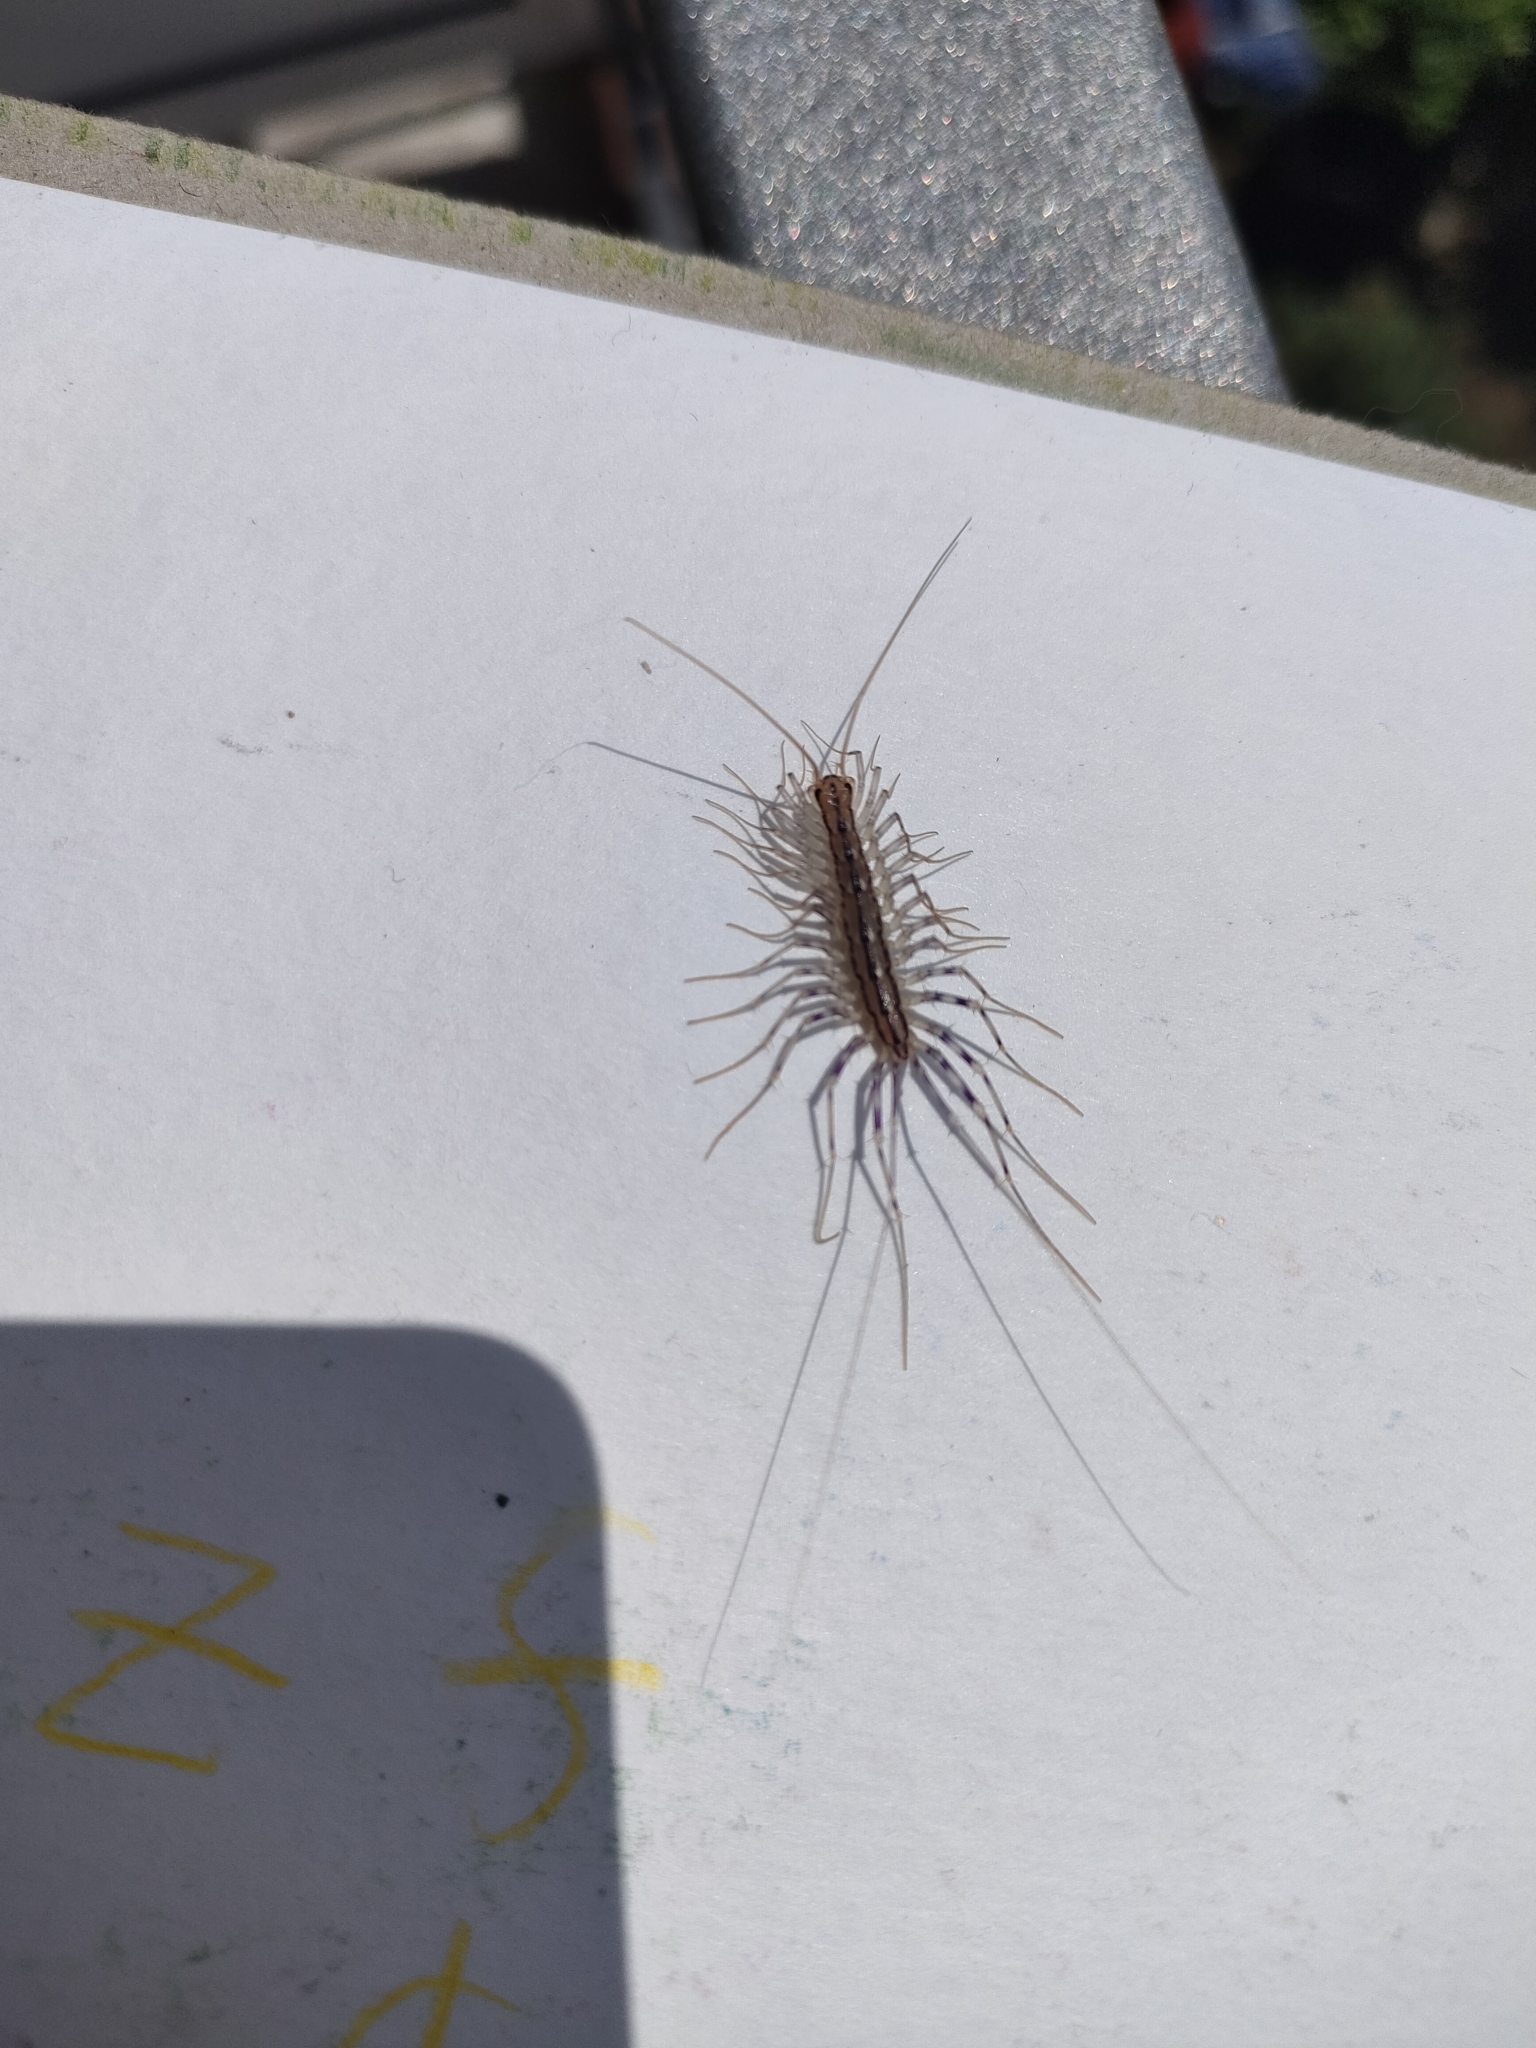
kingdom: Animalia
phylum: Arthropoda
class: Chilopoda
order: Scutigeromorpha
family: Scutigeridae
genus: Scutigera
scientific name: Scutigera coleoptrata
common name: House centipede
